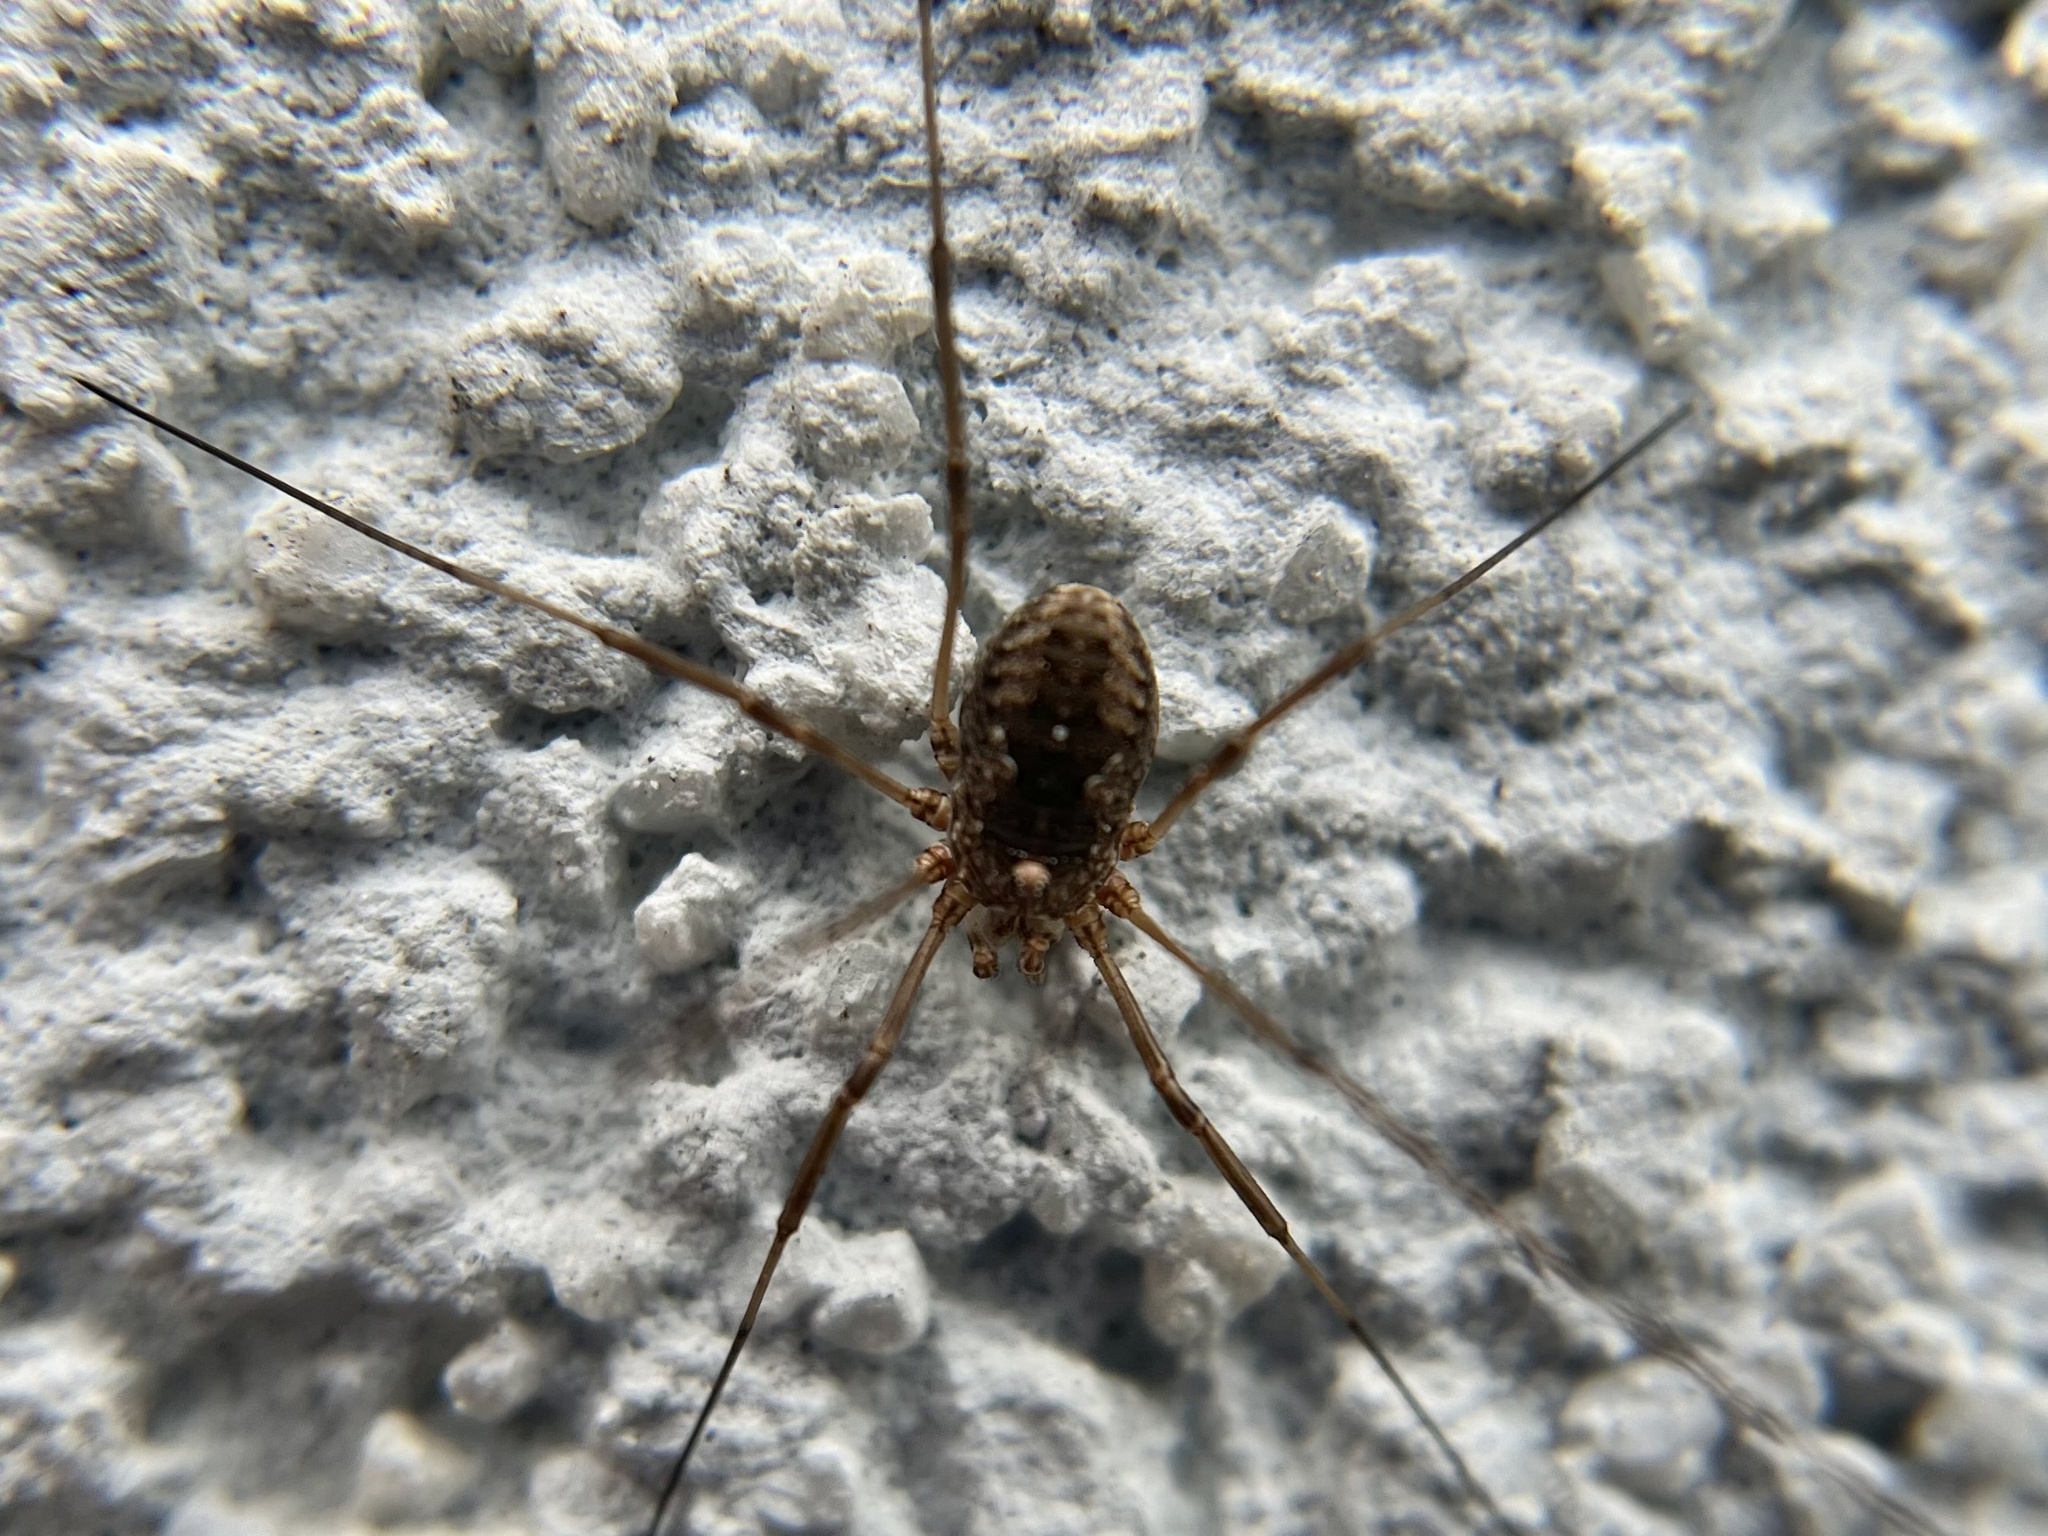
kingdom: Animalia
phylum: Arthropoda
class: Arachnida
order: Opiliones
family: Phalangiidae
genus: Phalangium
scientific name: Phalangium opilio
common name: Daddy longleg
